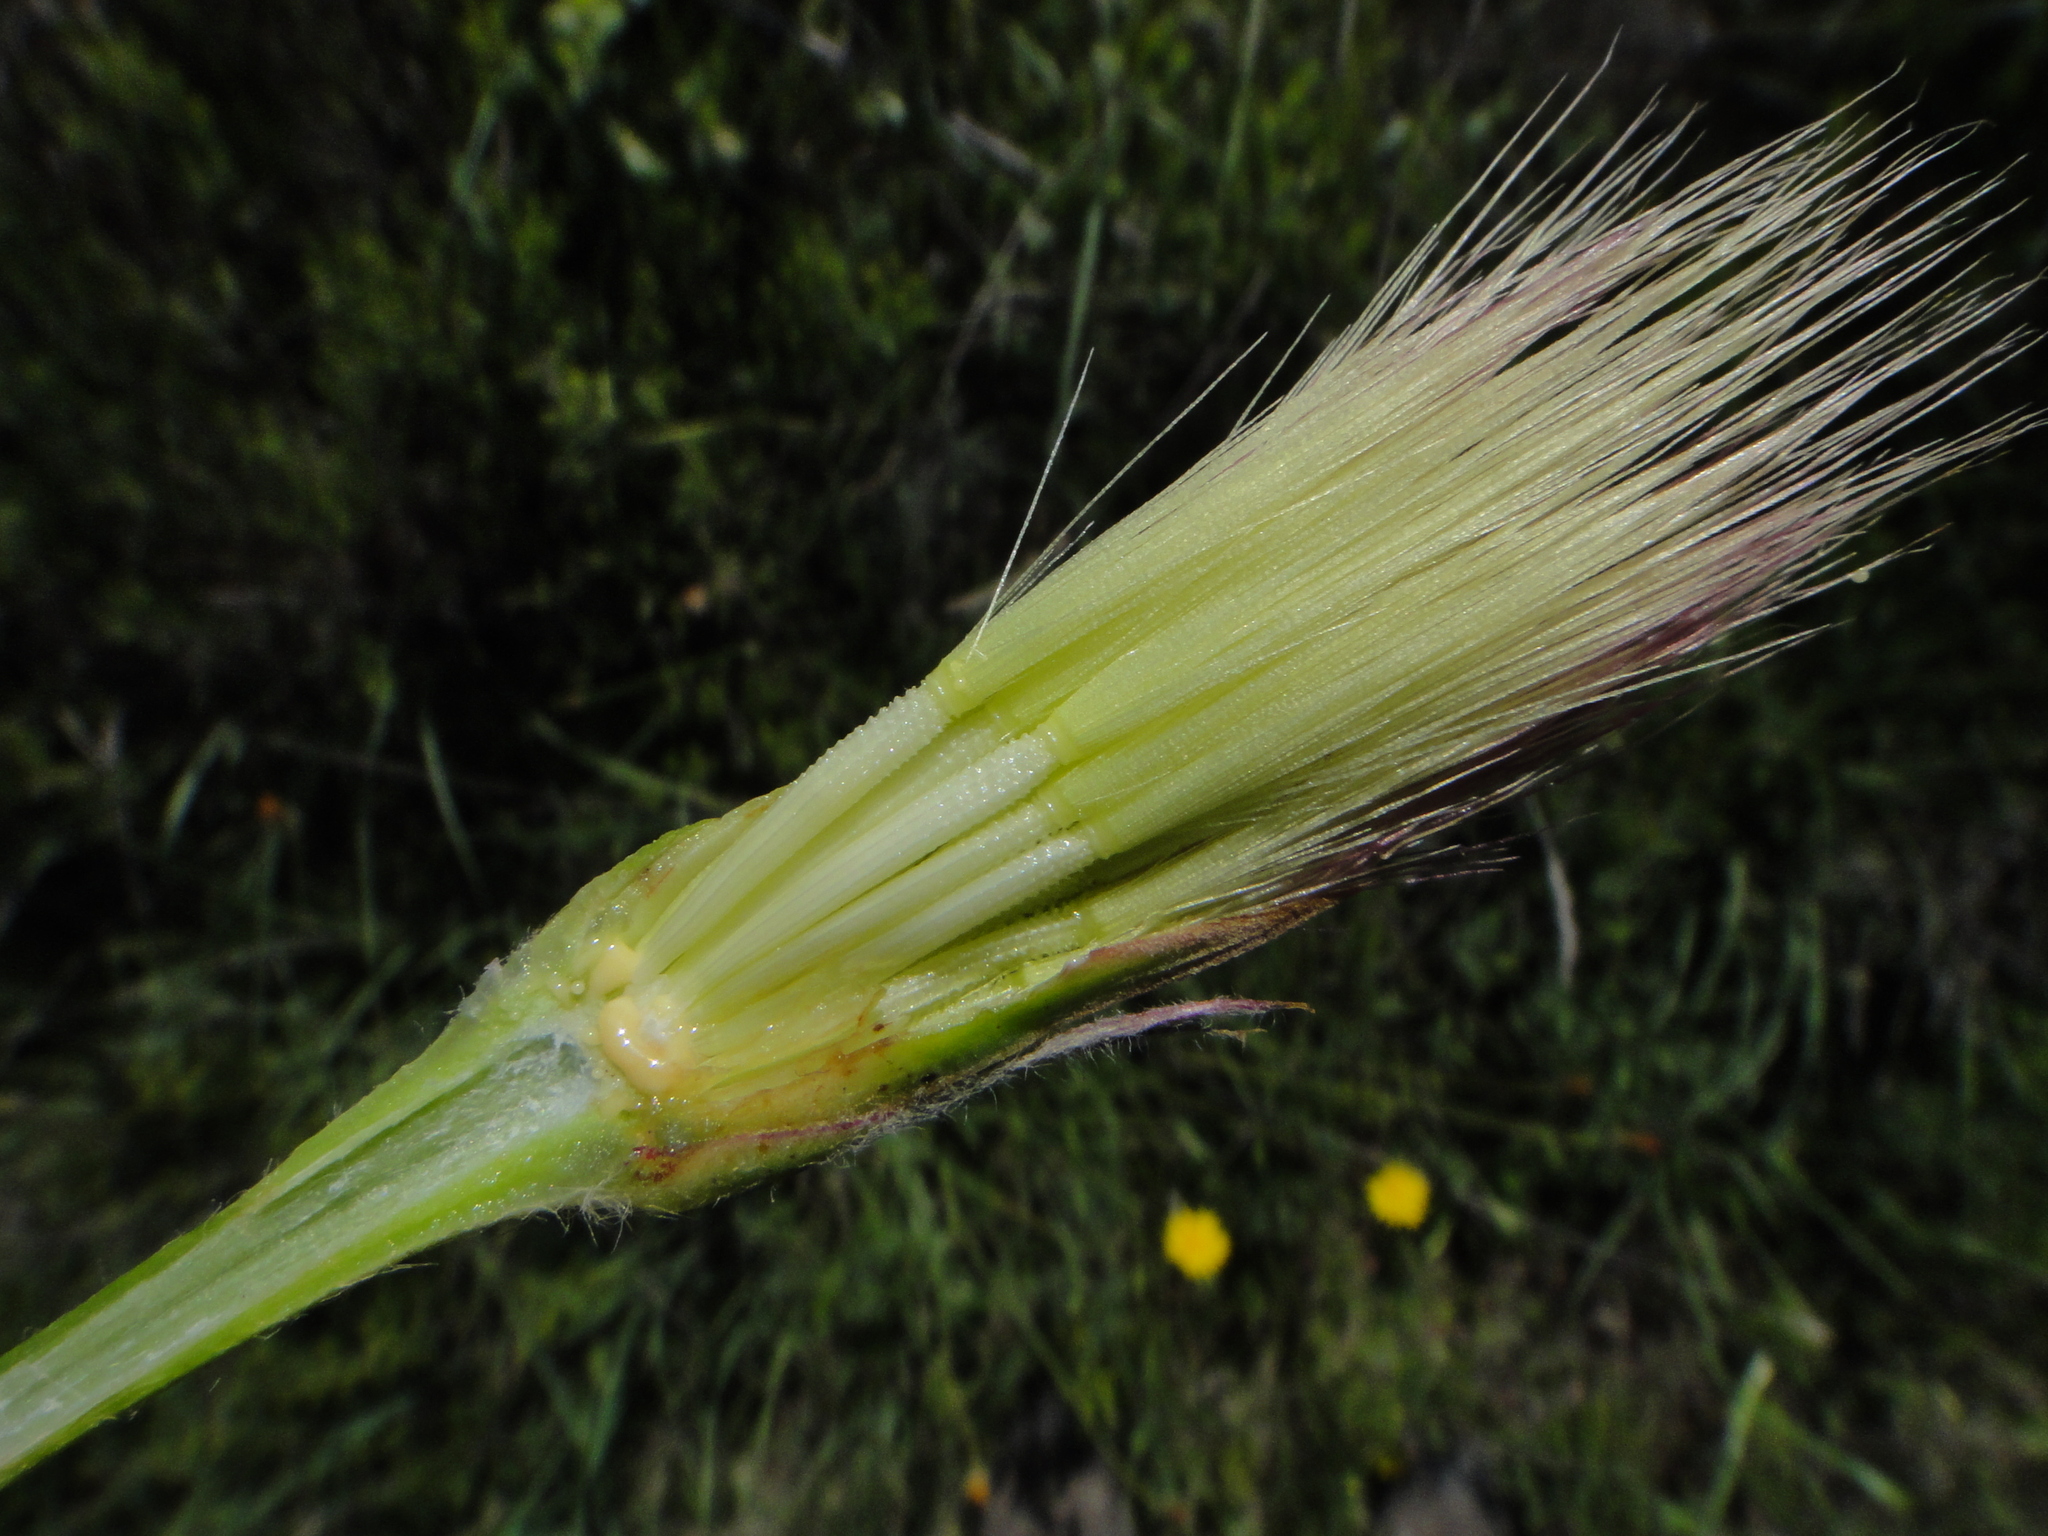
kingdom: Plantae
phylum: Tracheophyta
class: Magnoliopsida
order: Asterales
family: Asteraceae
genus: Gelasia
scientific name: Gelasia villosa
